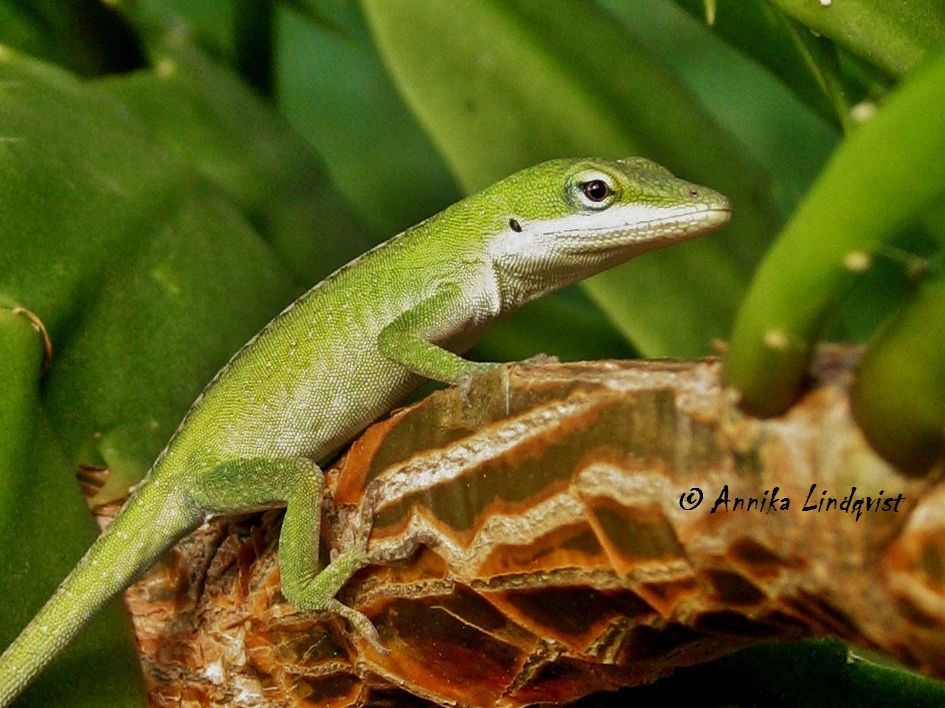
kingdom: Animalia
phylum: Chordata
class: Squamata
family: Dactyloidae
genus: Anolis
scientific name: Anolis carolinensis
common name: Green anole
